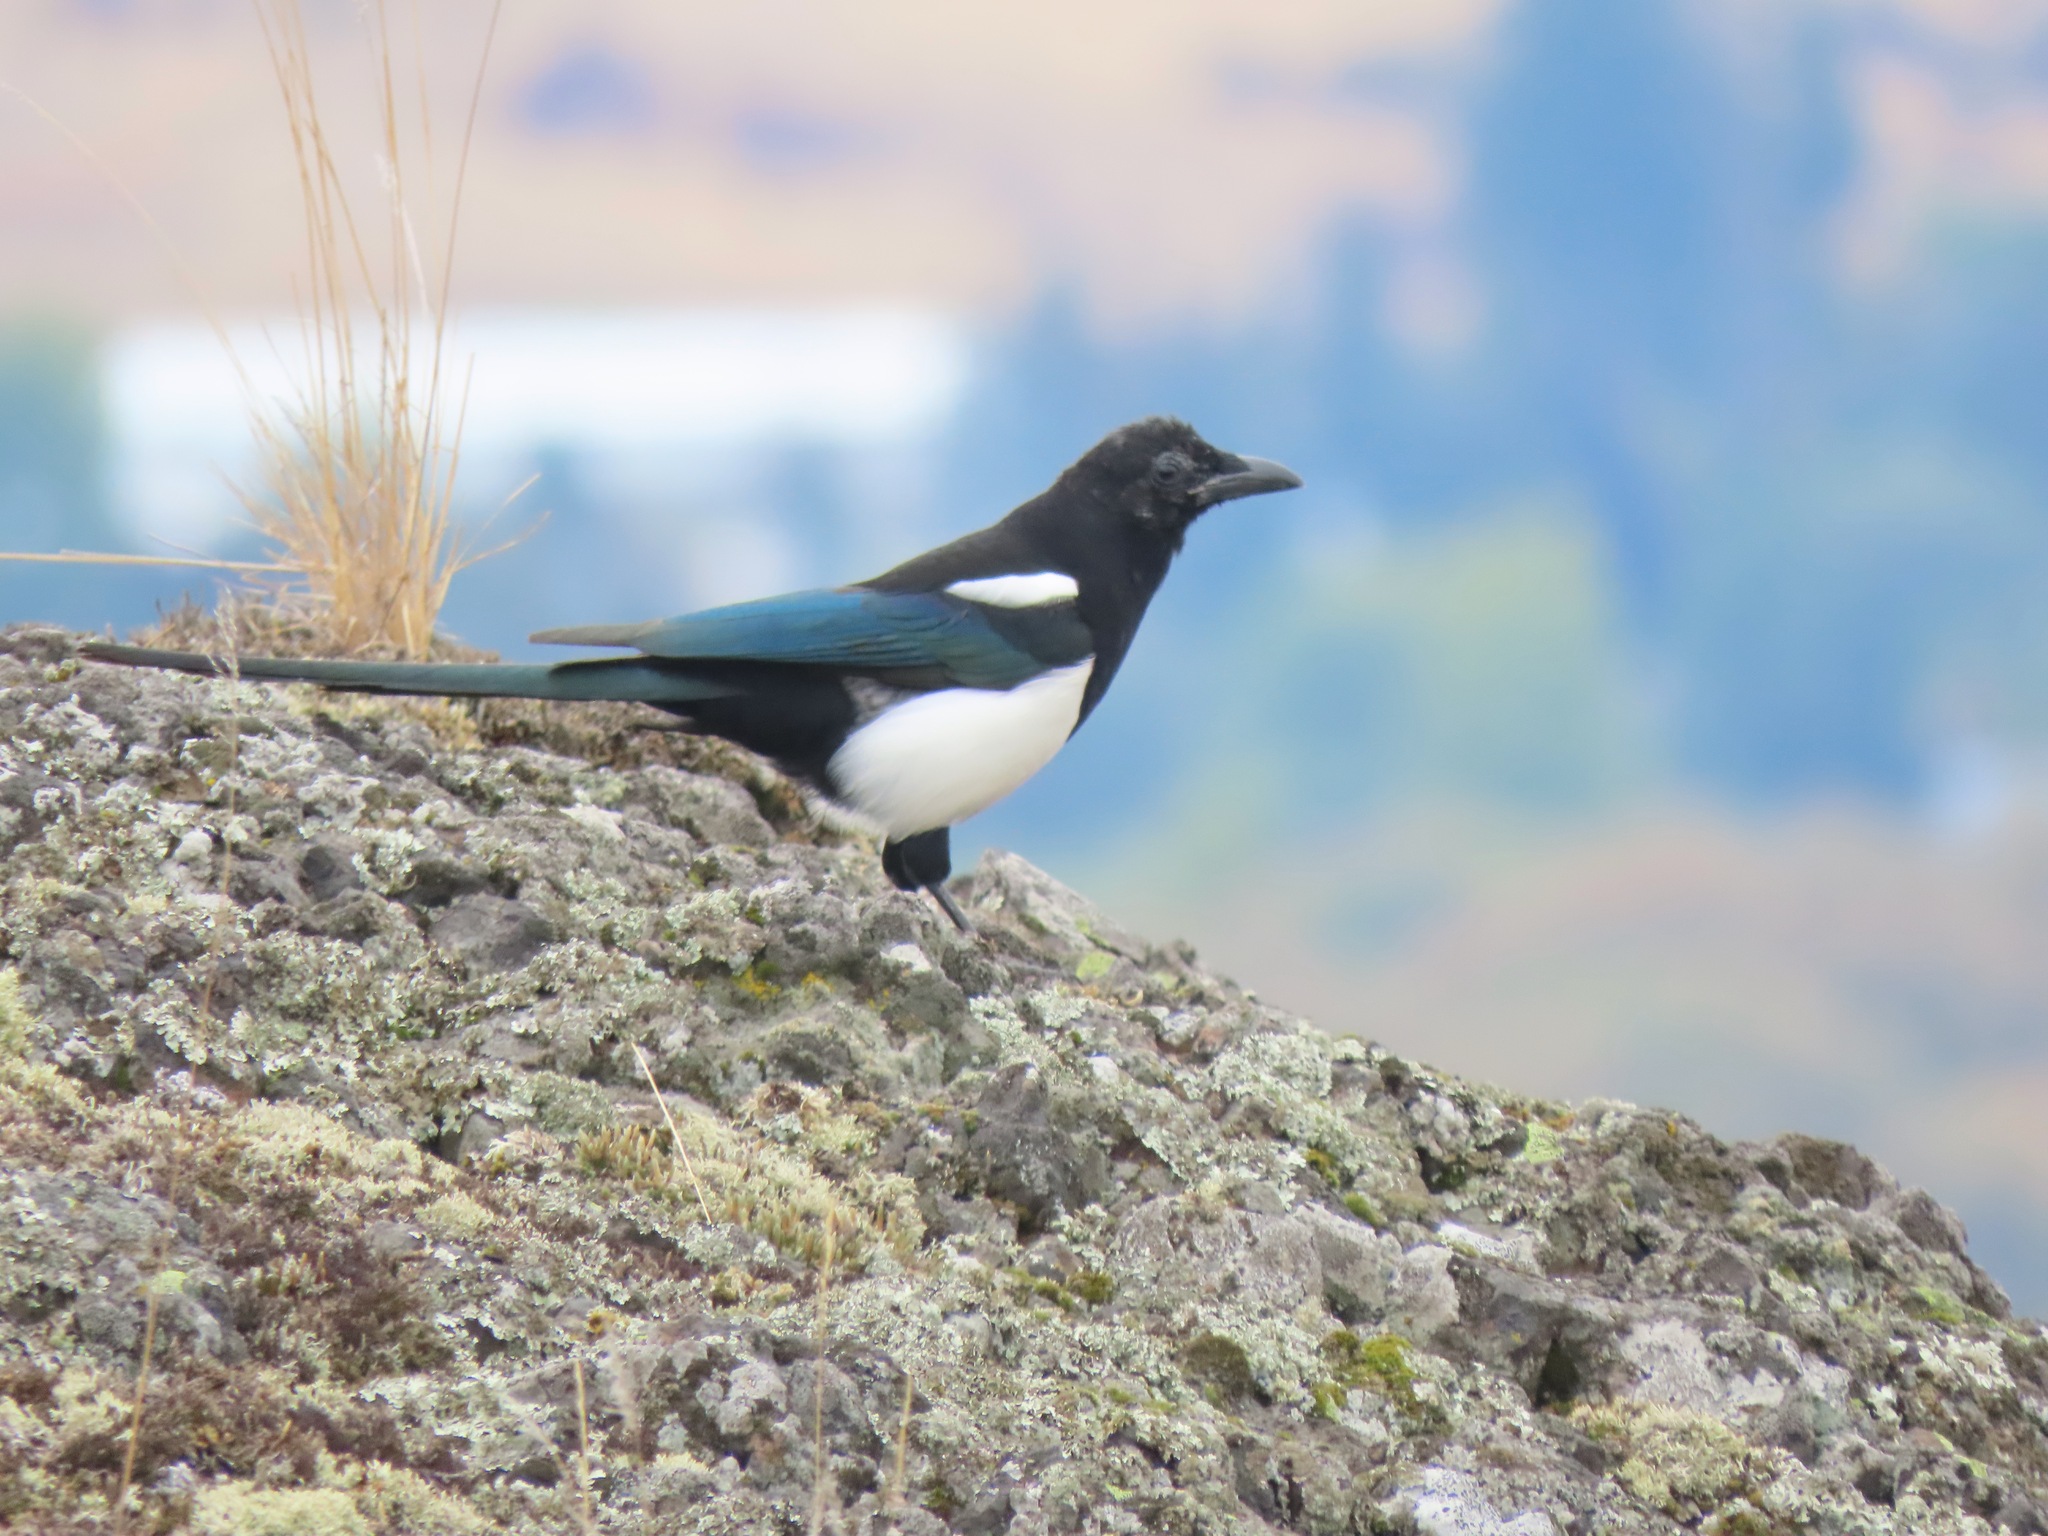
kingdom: Animalia
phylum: Chordata
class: Aves
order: Passeriformes
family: Corvidae
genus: Pica
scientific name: Pica hudsonia
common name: Black-billed magpie
